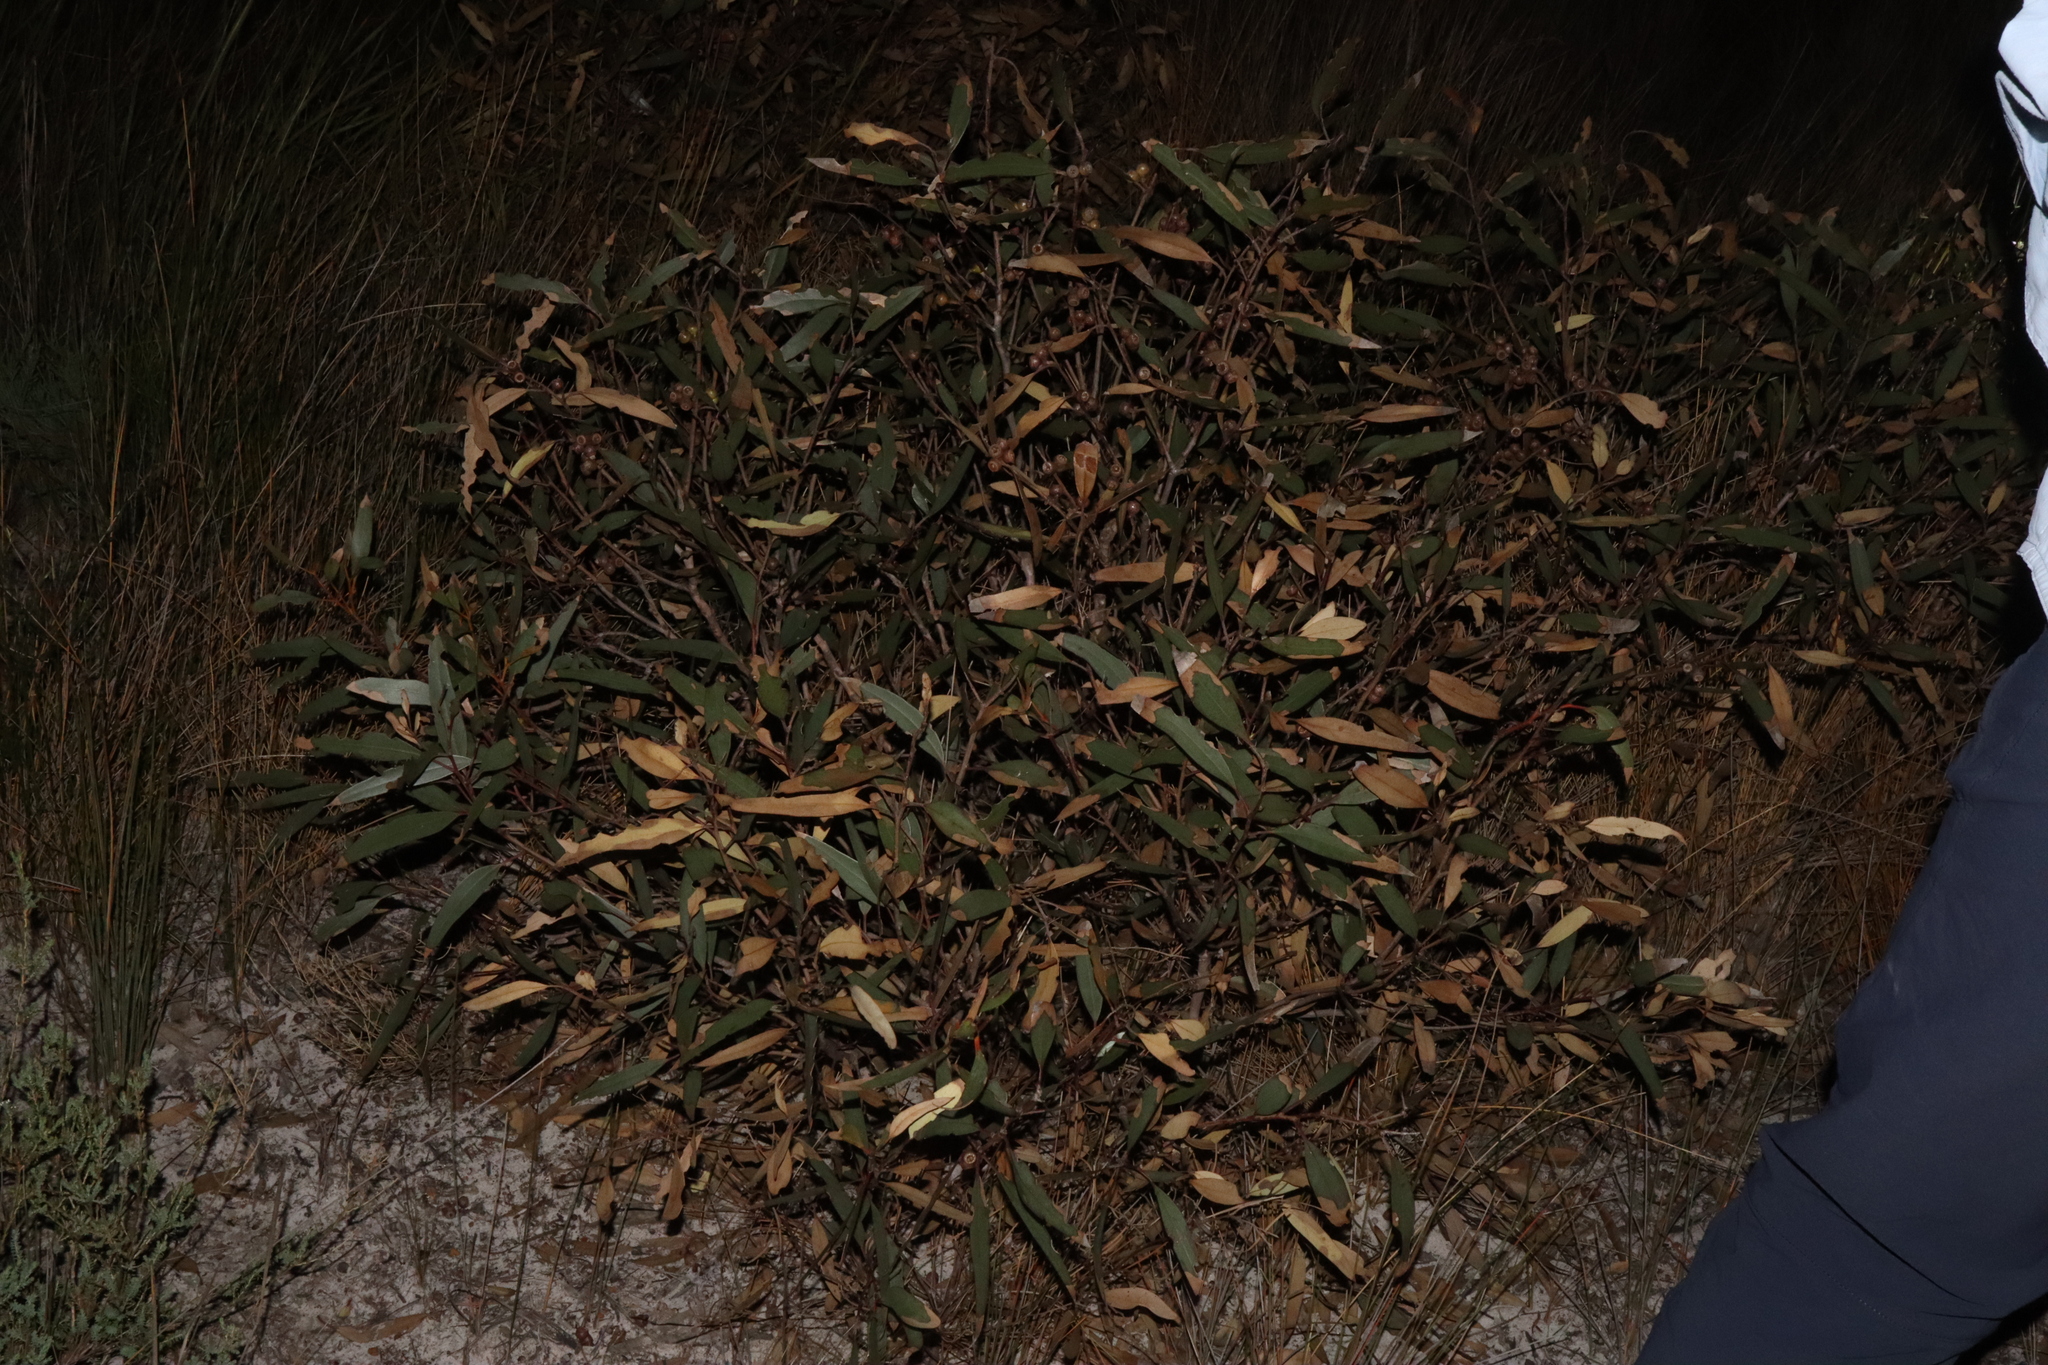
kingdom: Plantae
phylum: Tracheophyta
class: Magnoliopsida
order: Myrtales
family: Myrtaceae
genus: Eucalyptus
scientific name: Eucalyptus micranthera
